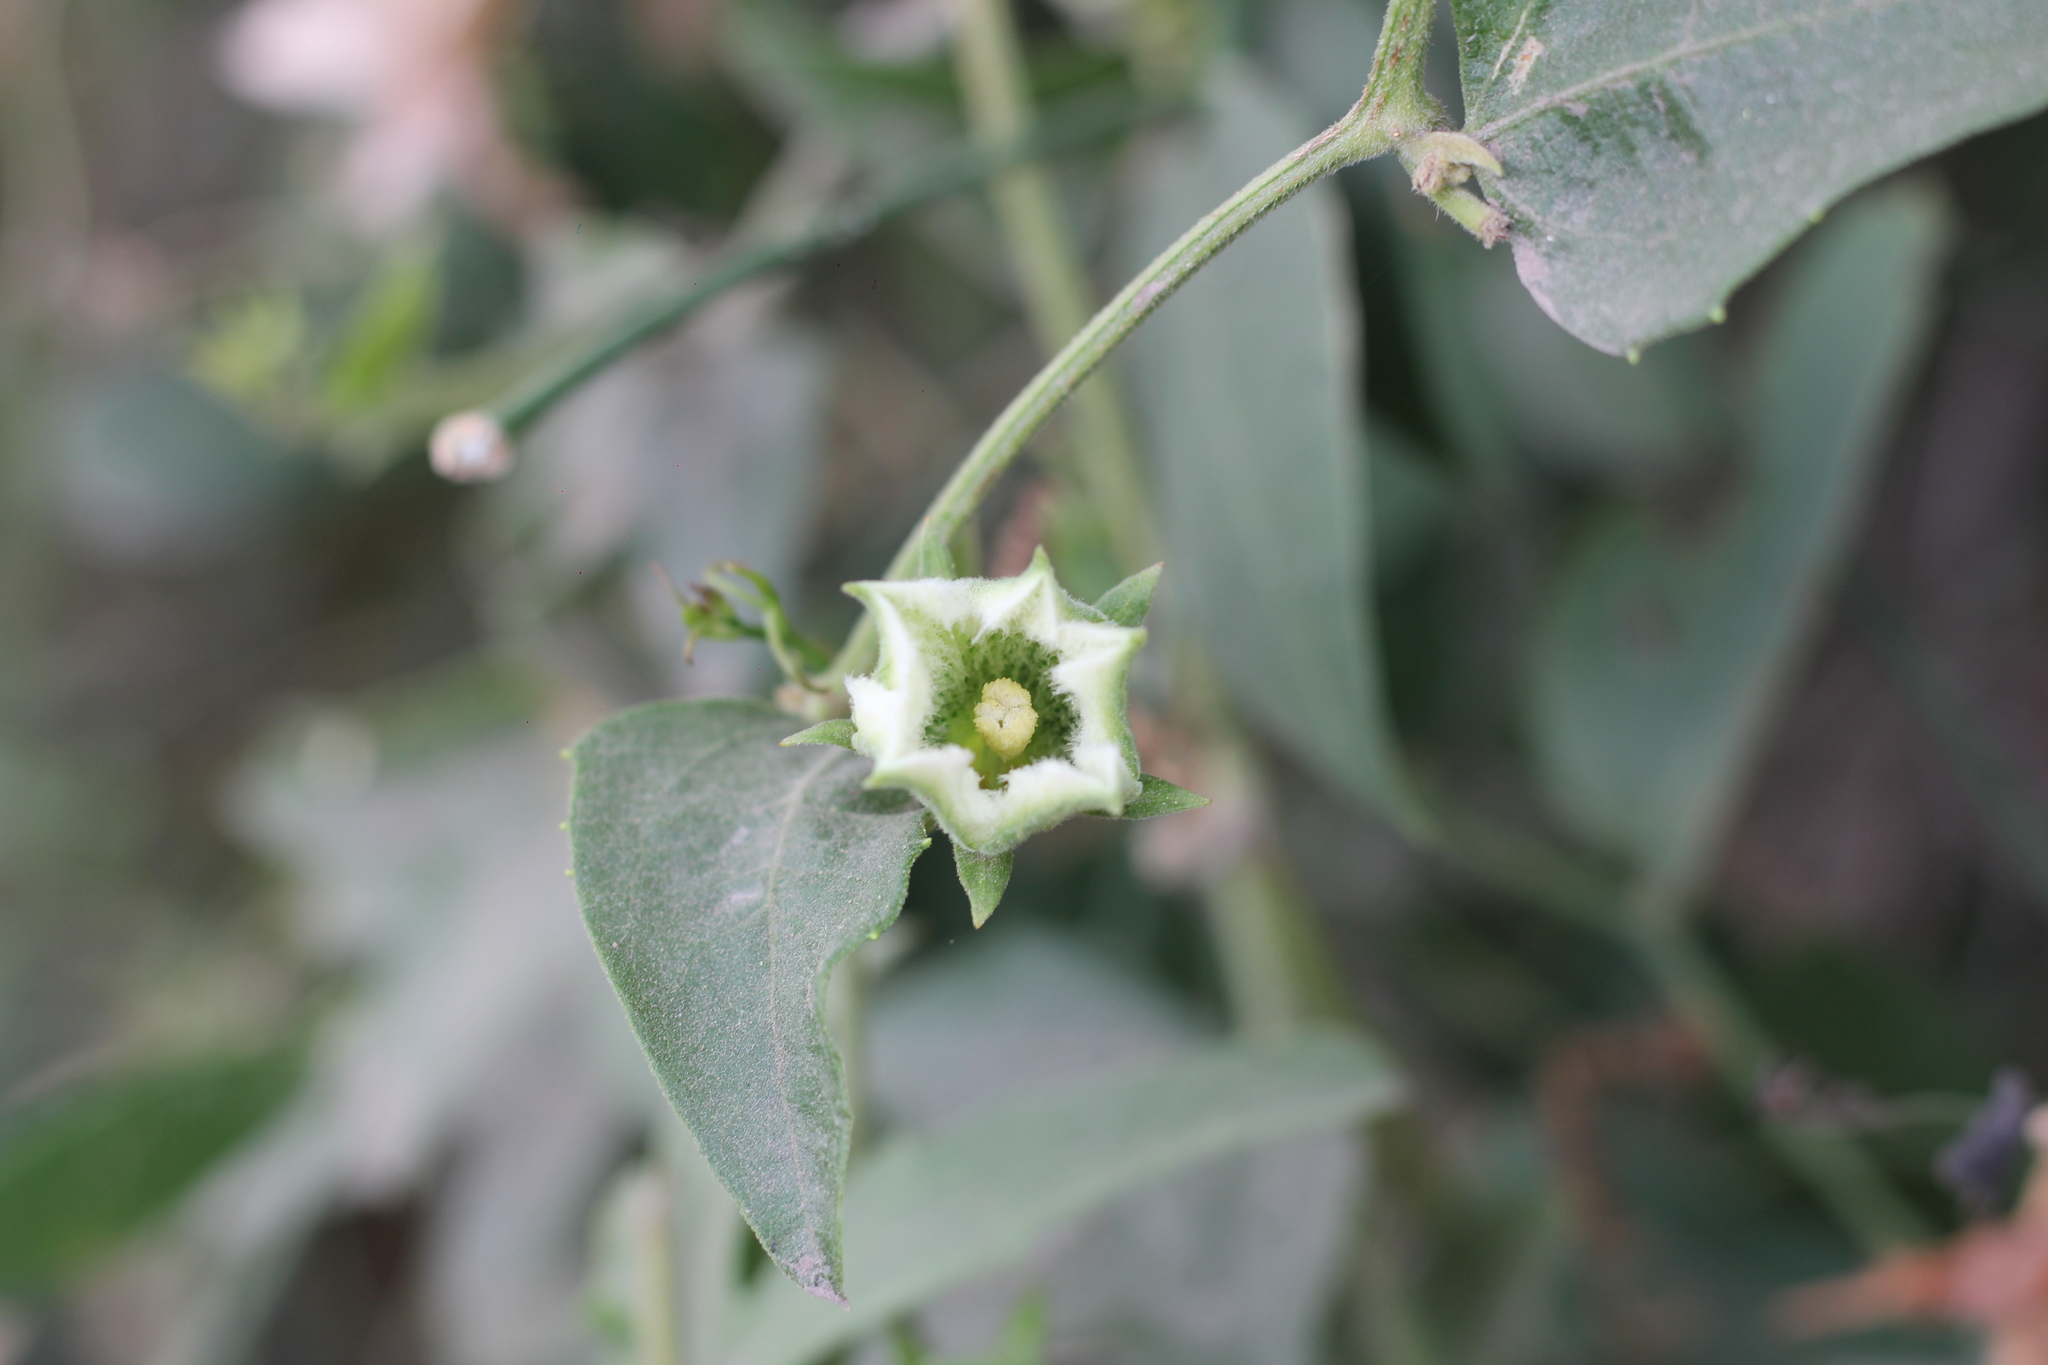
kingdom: Plantae
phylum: Tracheophyta
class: Magnoliopsida
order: Cucurbitales
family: Cucurbitaceae
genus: Cayaponia
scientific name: Cayaponia podantha
